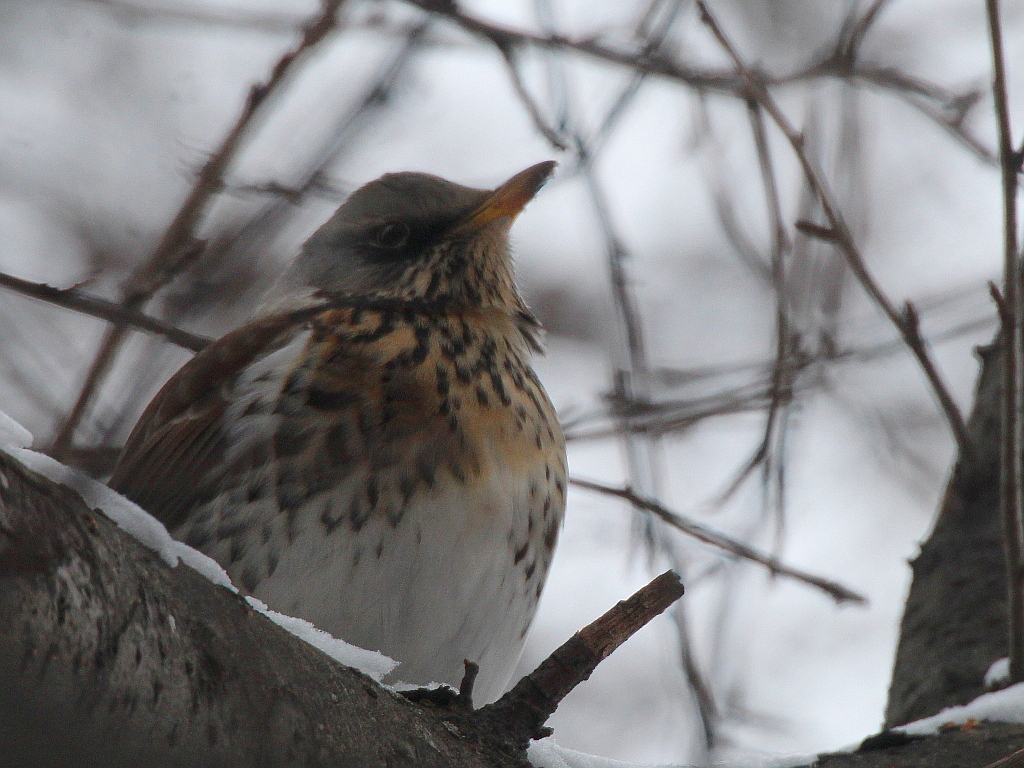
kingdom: Animalia
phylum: Chordata
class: Aves
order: Passeriformes
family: Turdidae
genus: Turdus
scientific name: Turdus pilaris
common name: Fieldfare
